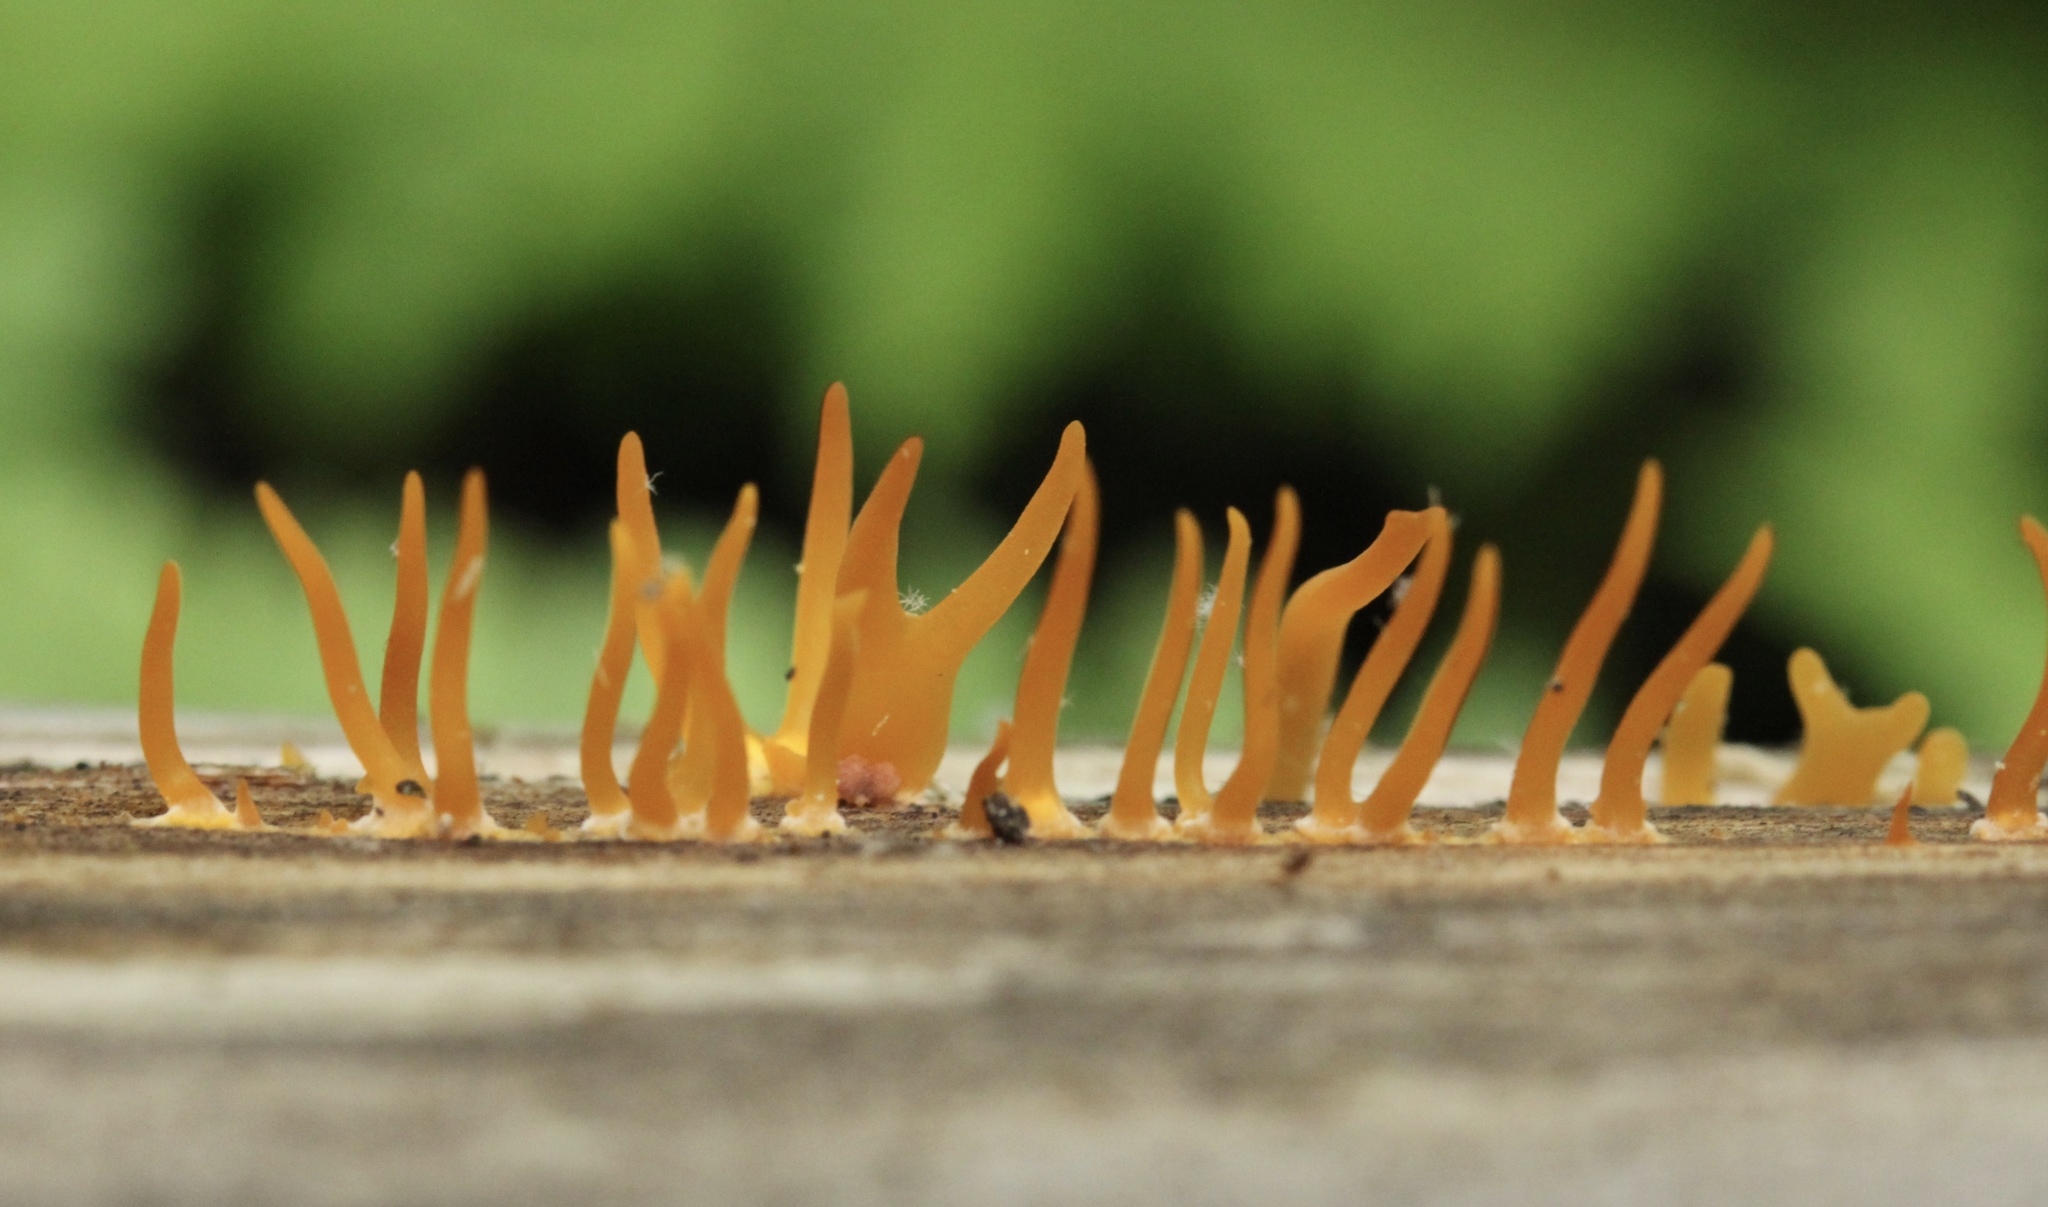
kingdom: Fungi
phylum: Basidiomycota
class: Dacrymycetes
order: Dacrymycetales
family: Dacrymycetaceae
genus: Calocera
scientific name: Calocera cornea
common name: Small stagshorn
